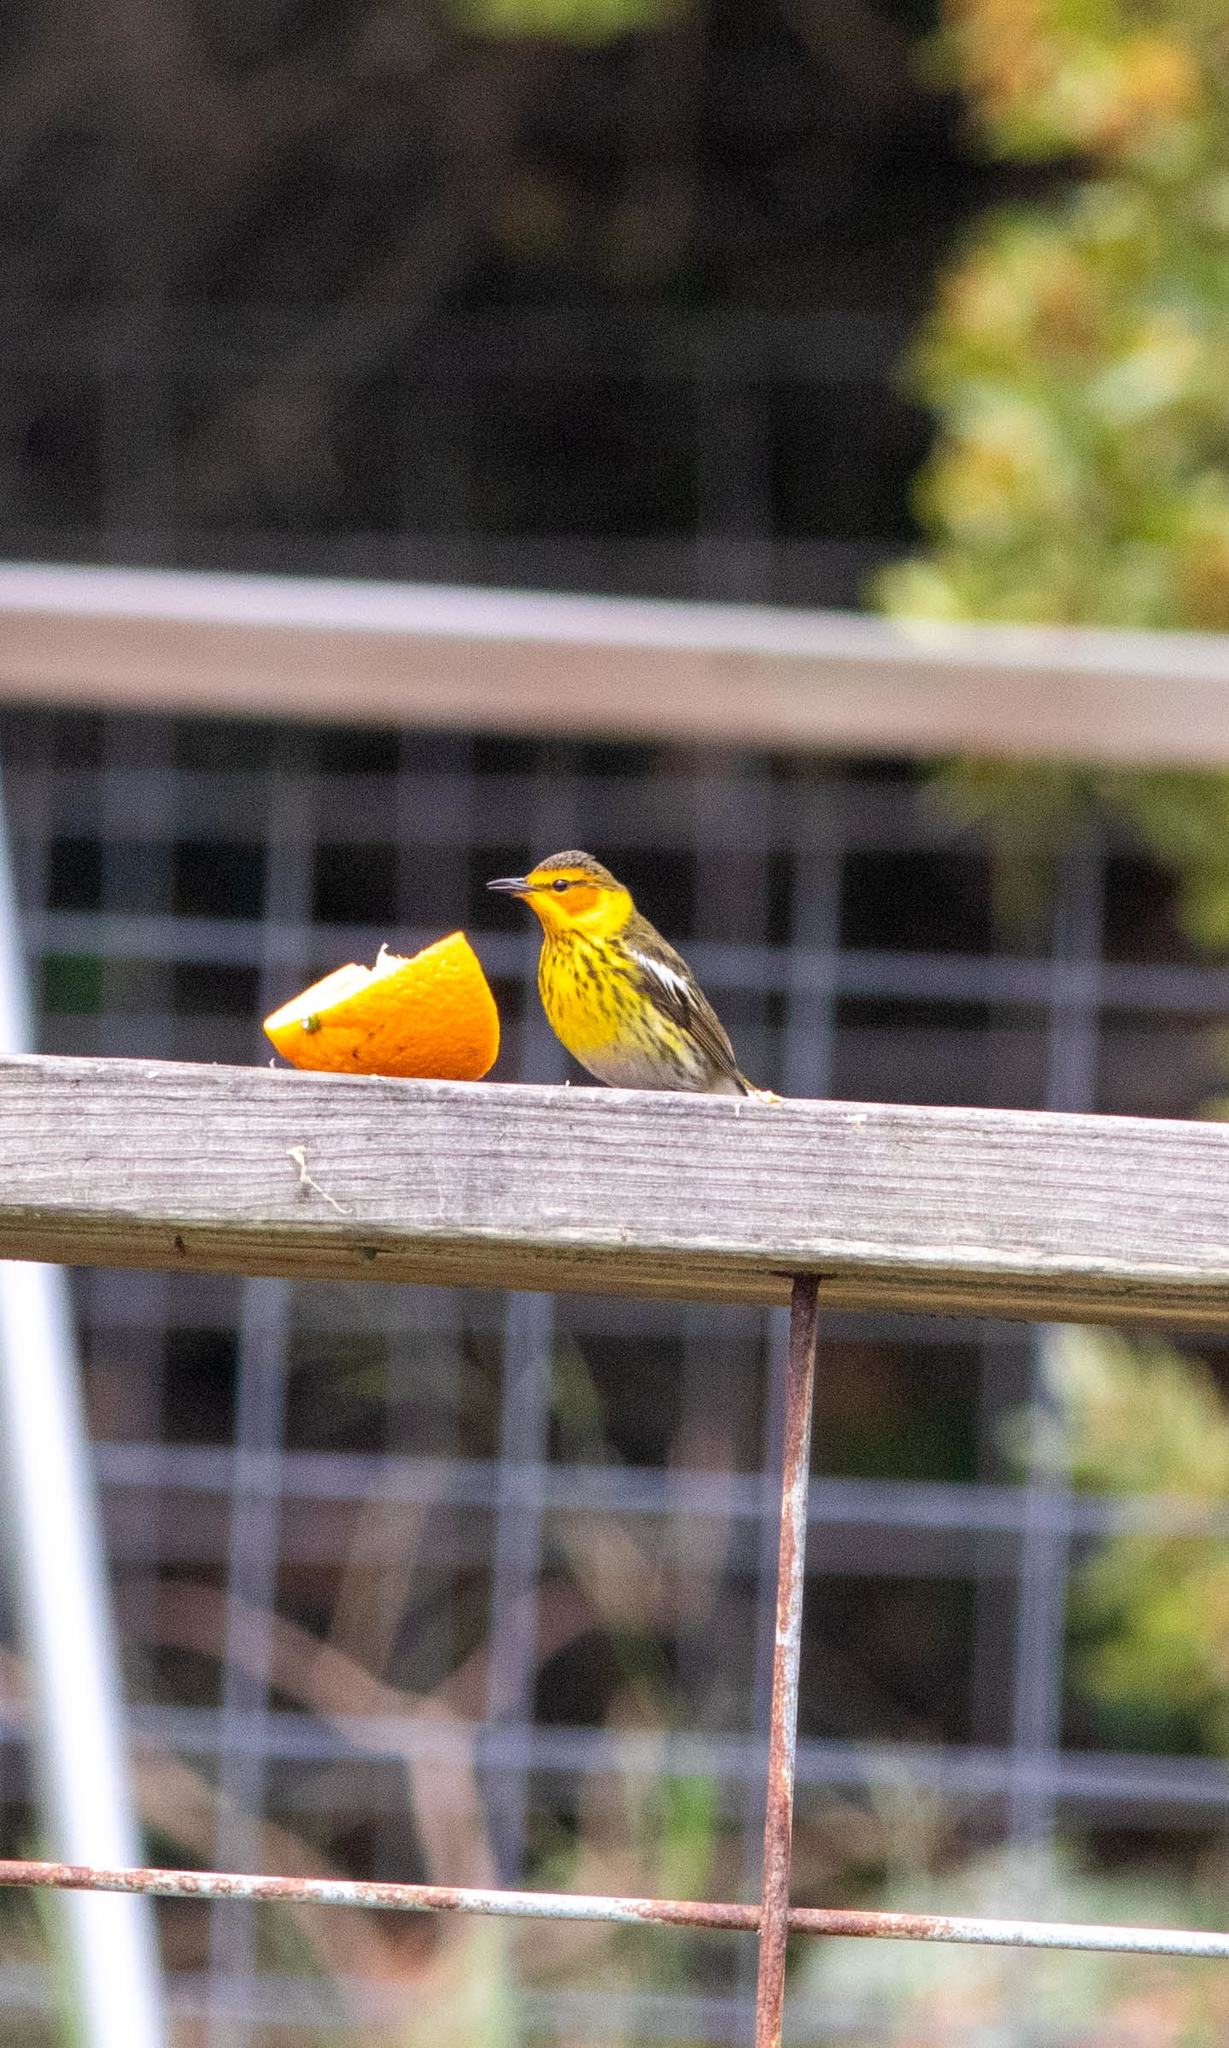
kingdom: Animalia
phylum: Chordata
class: Aves
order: Passeriformes
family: Parulidae
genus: Setophaga
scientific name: Setophaga tigrina
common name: Cape may warbler
